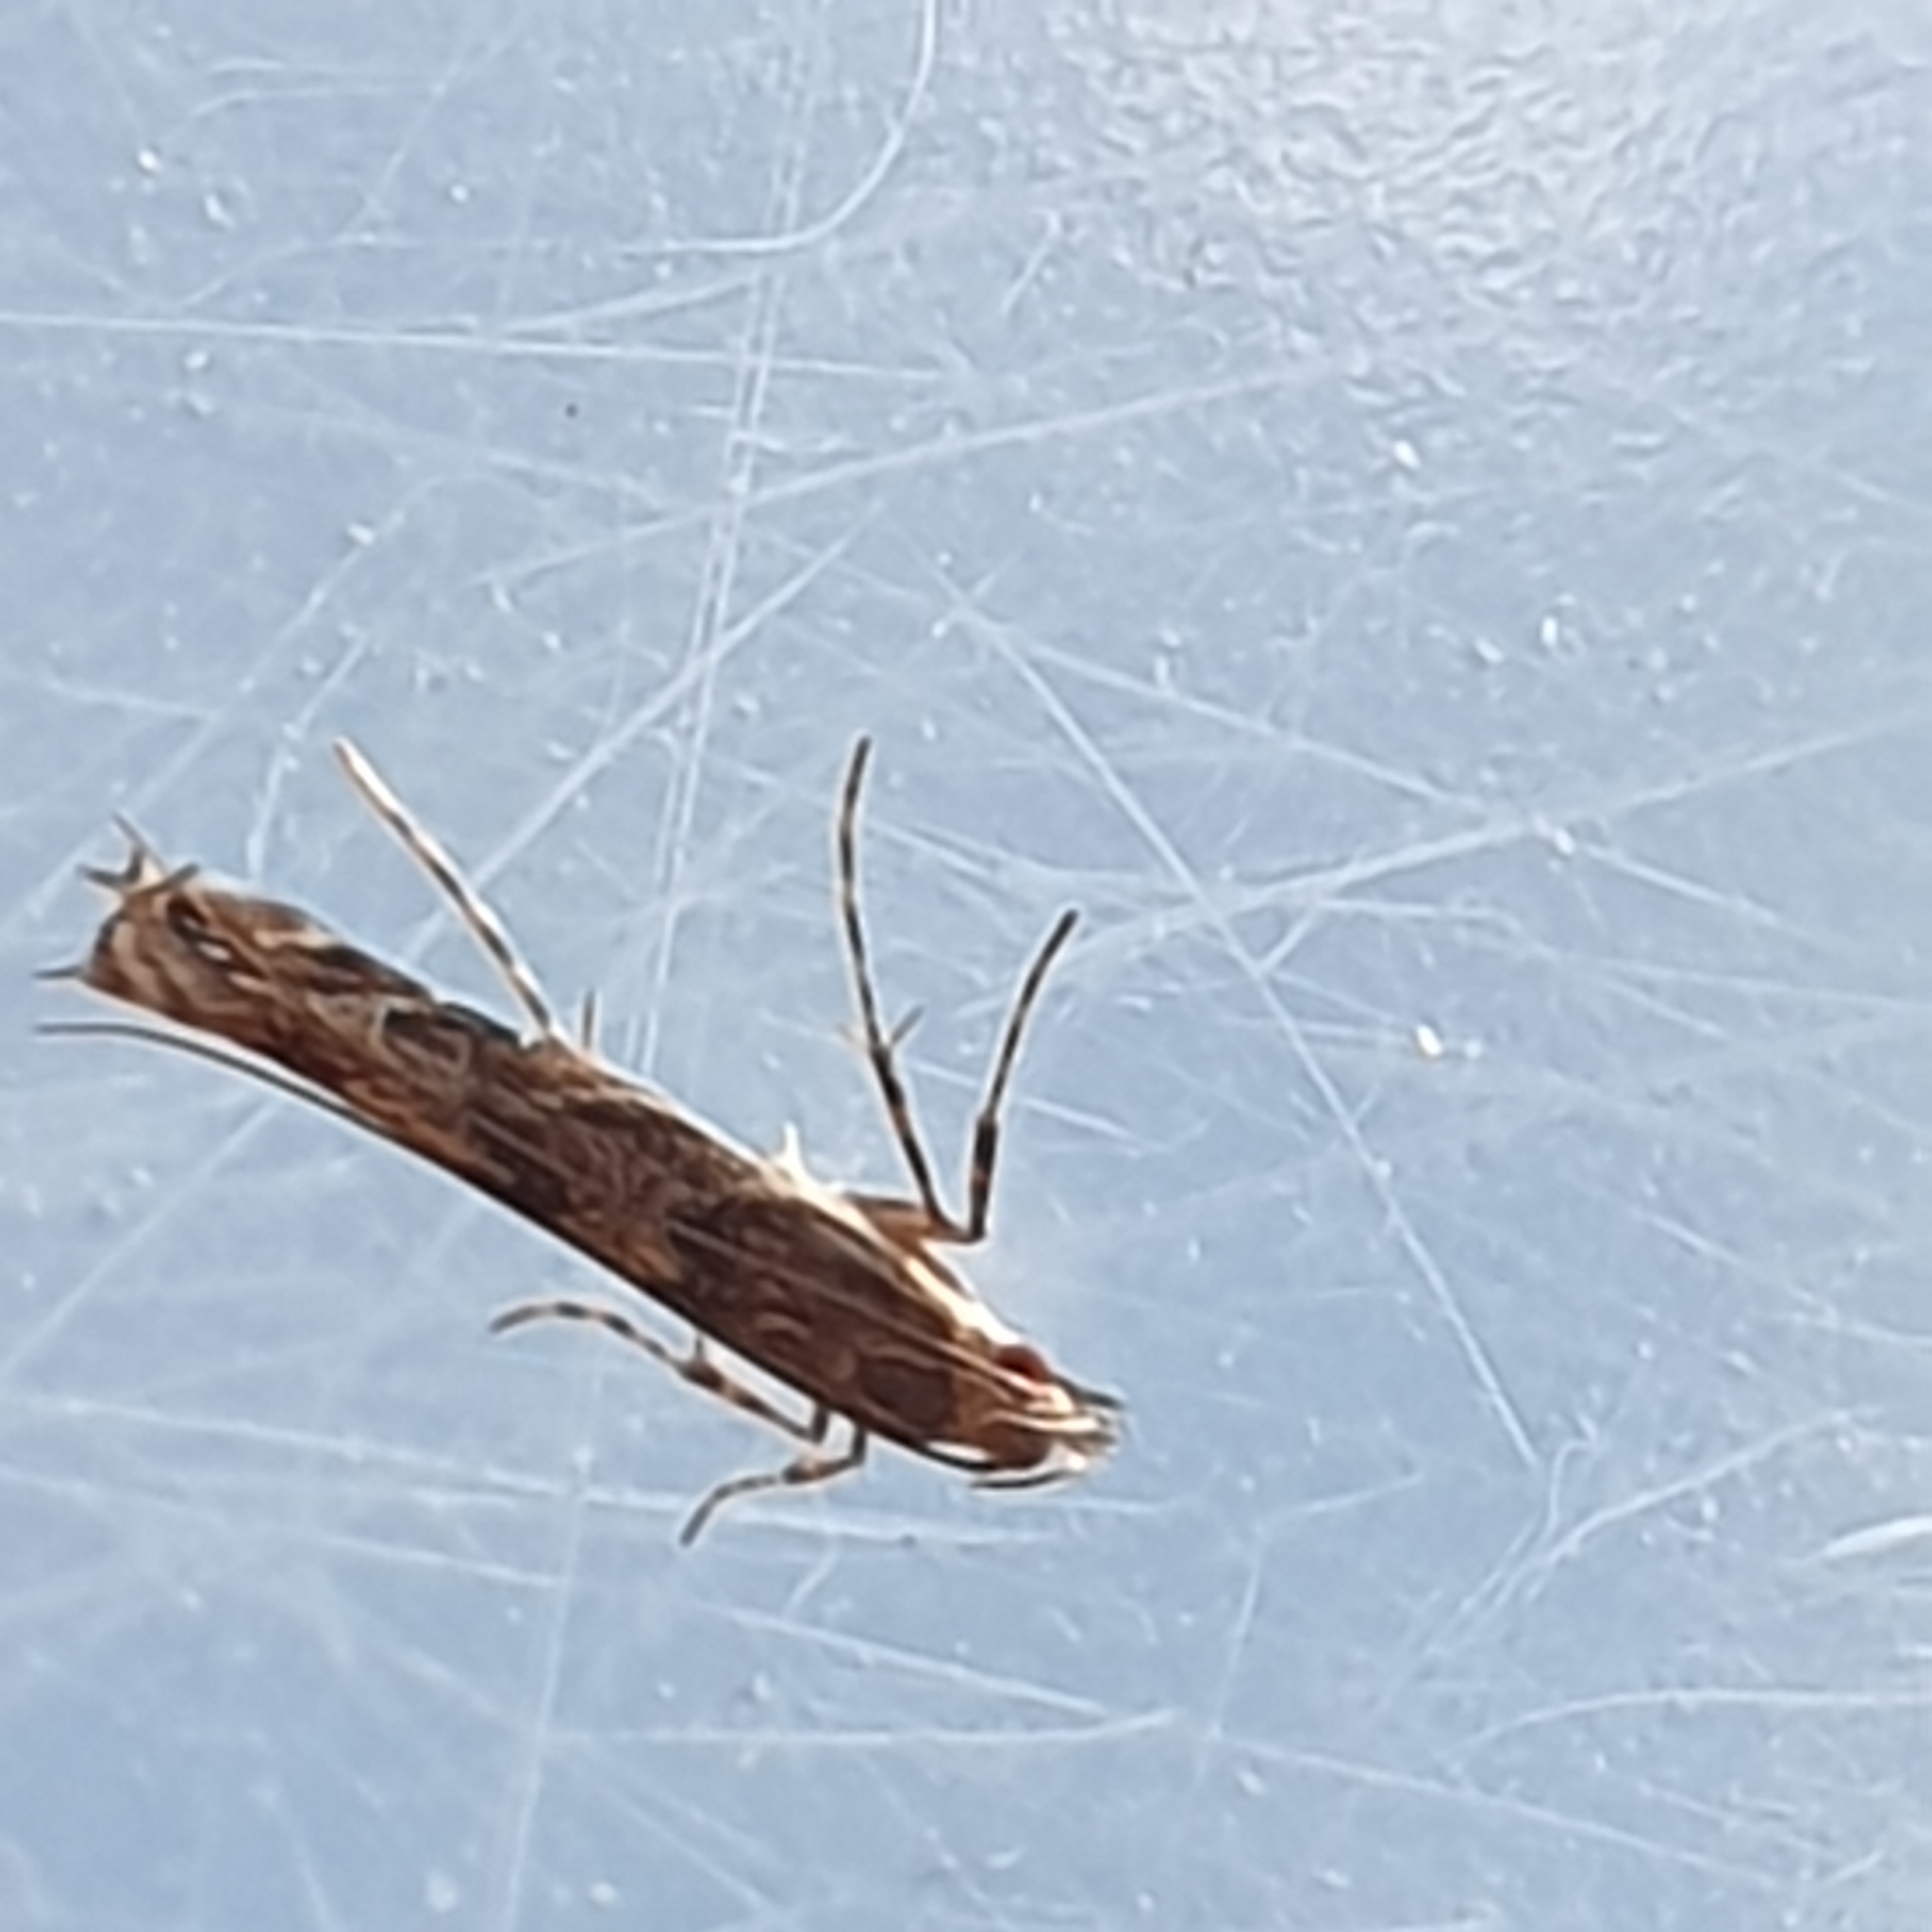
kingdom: Animalia
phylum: Arthropoda
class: Insecta
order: Lepidoptera
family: Gracillariidae
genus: Acrocercops
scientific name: Acrocercops brongniardella
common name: Brown oak slender
